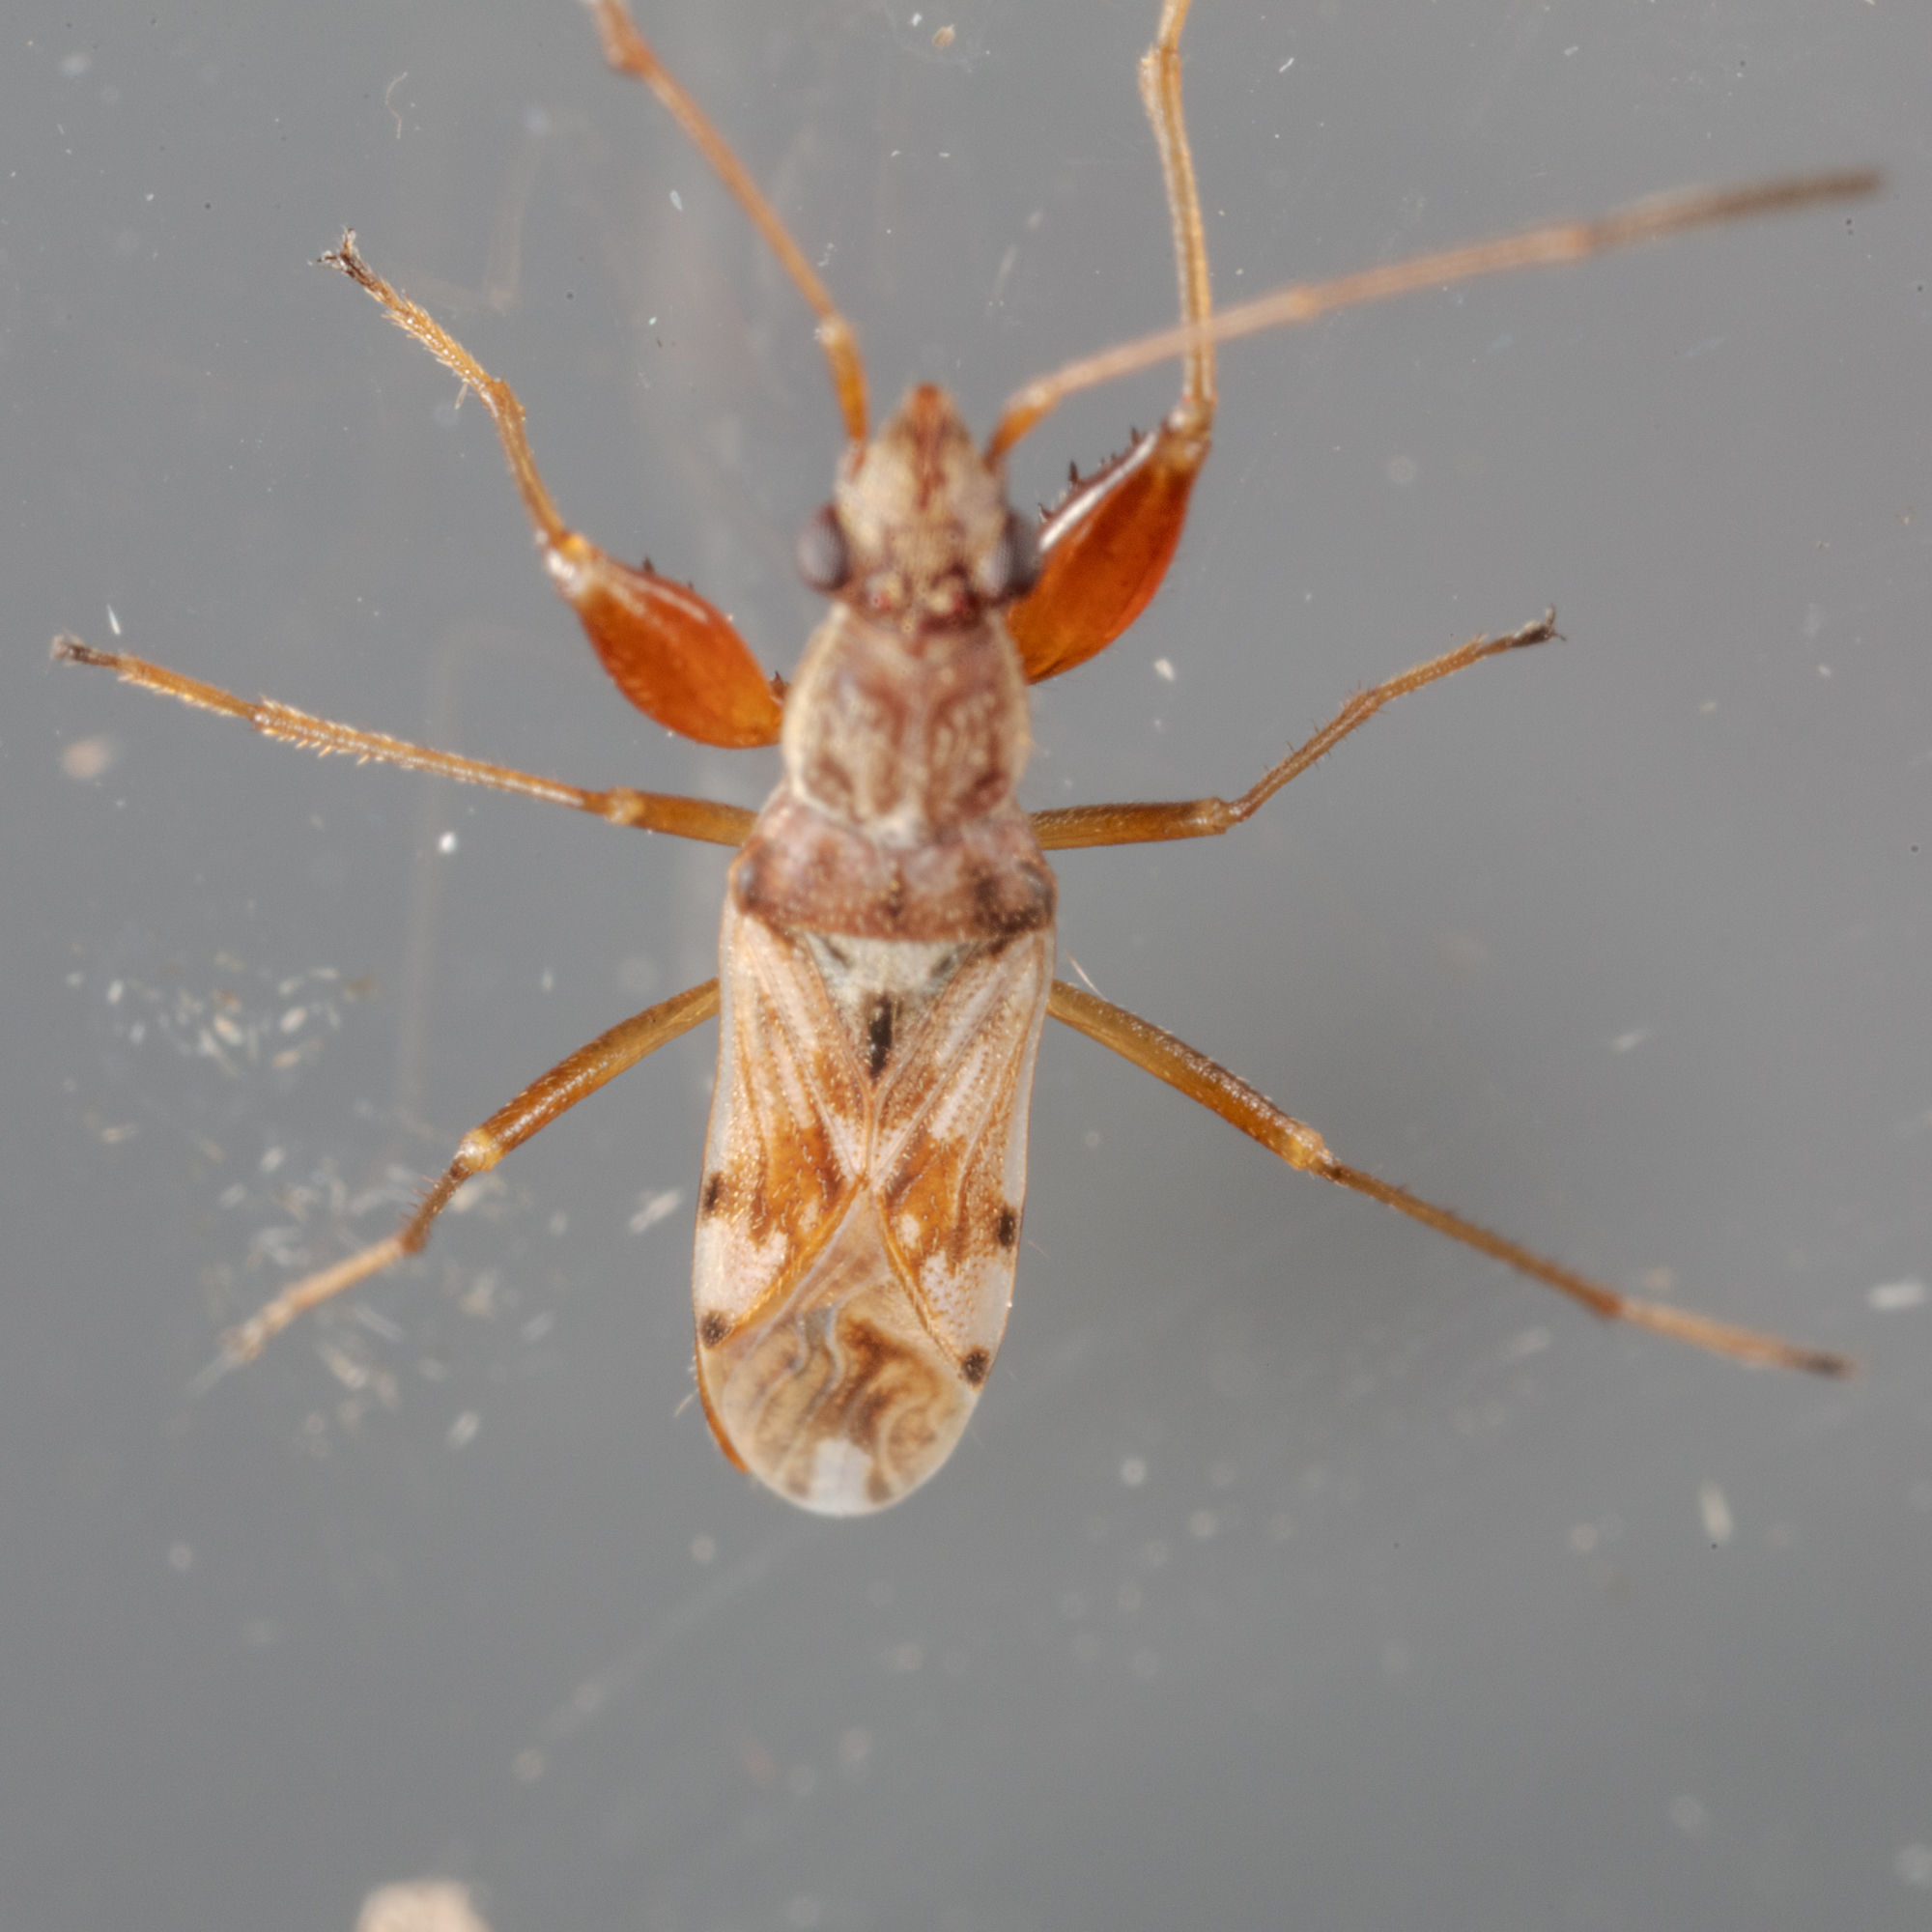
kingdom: Animalia
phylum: Arthropoda
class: Insecta
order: Hemiptera
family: Rhyparochromidae
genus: Neopamera
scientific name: Neopamera bilobata
